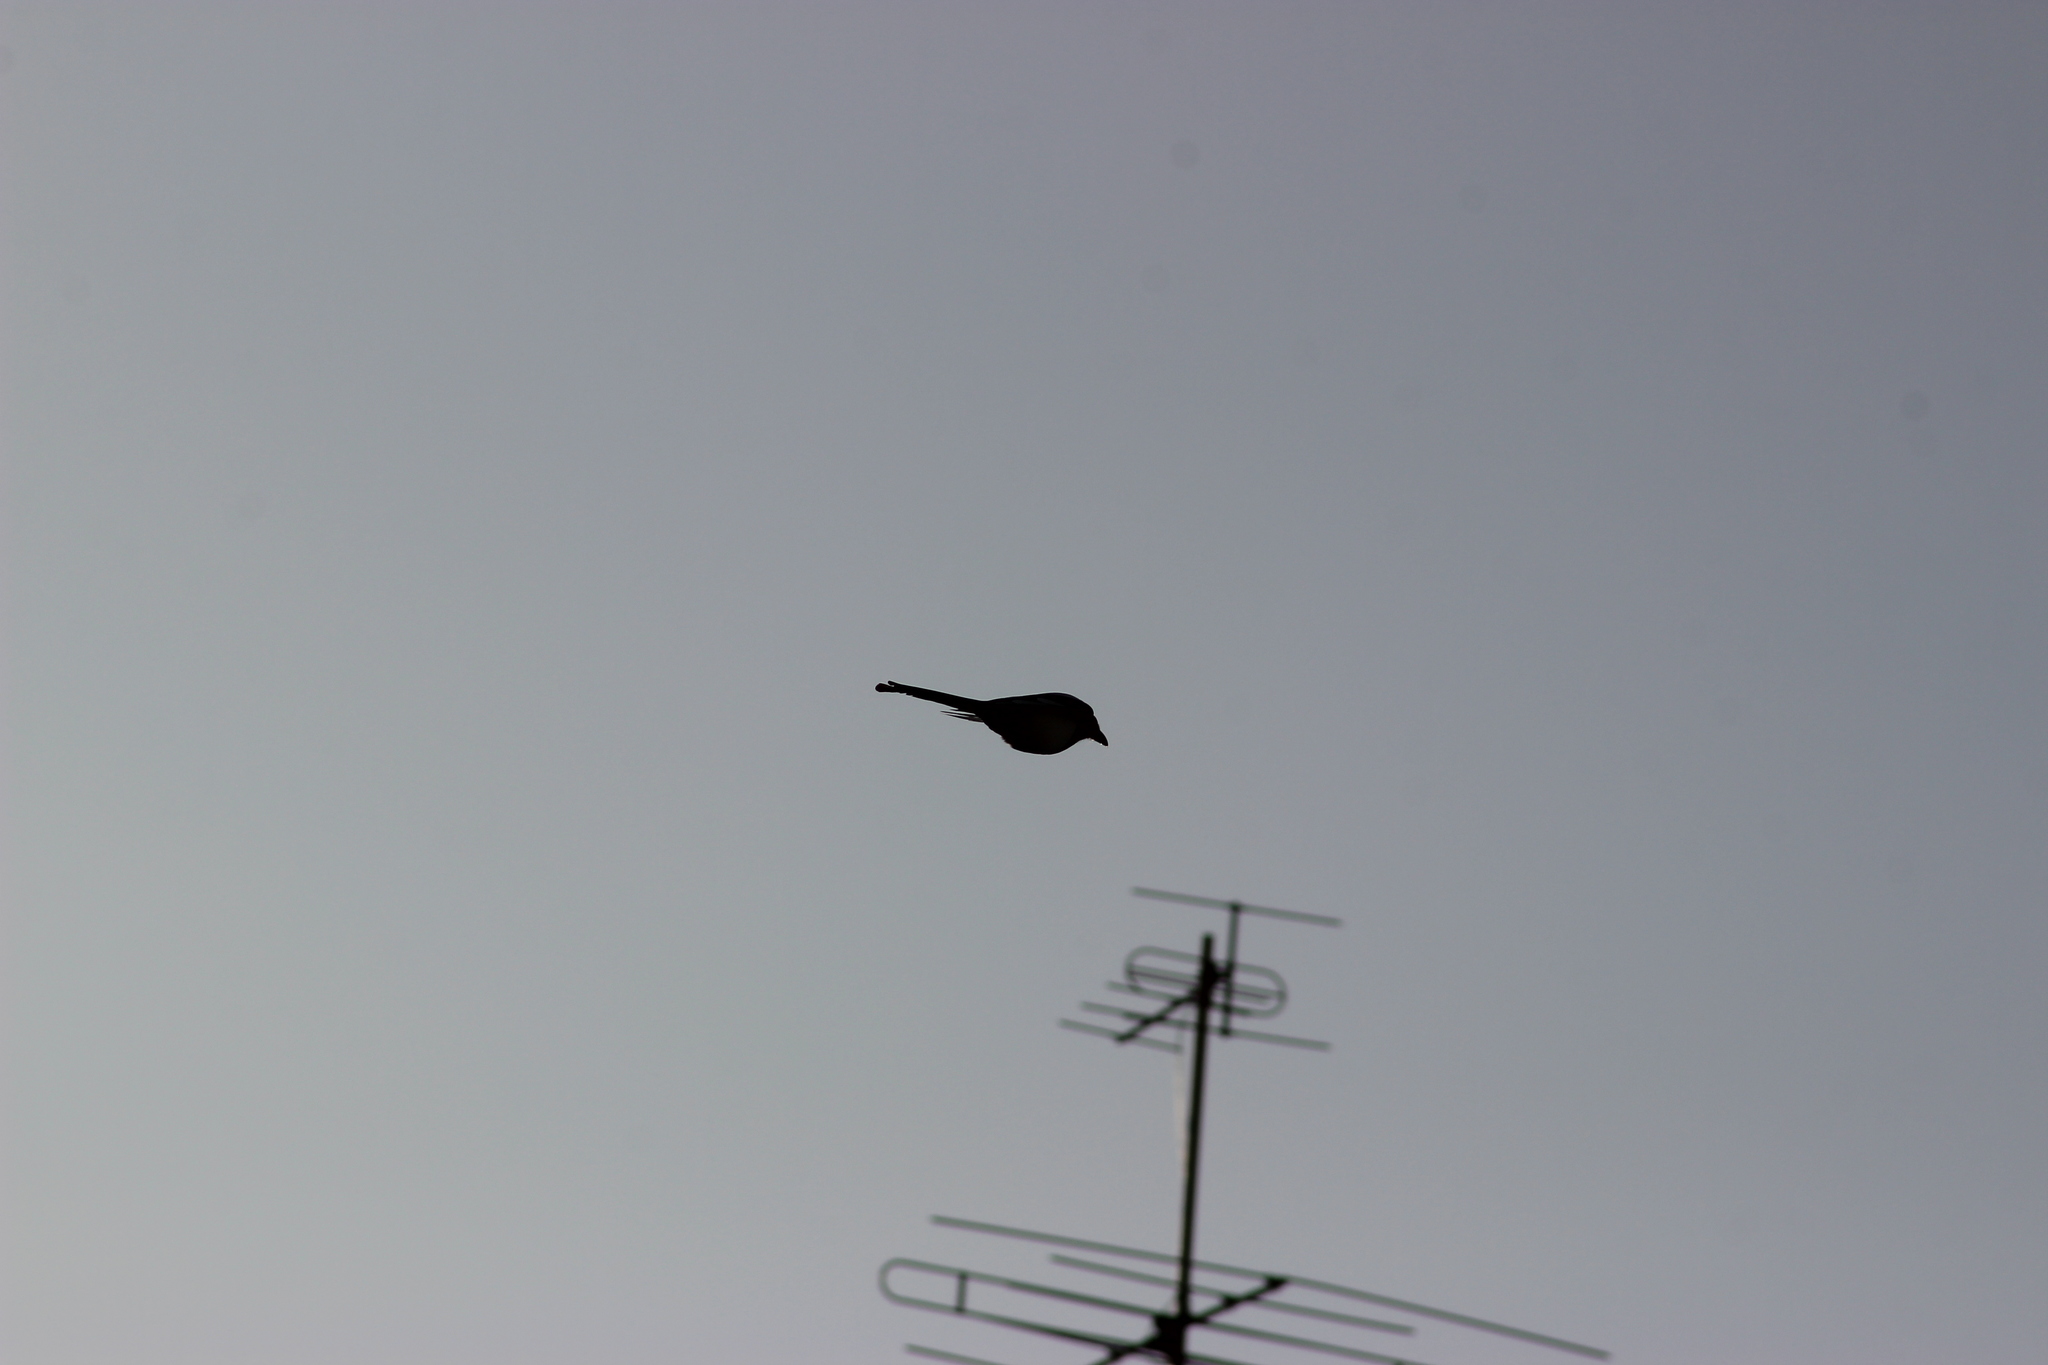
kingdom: Animalia
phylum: Chordata
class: Aves
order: Passeriformes
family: Corvidae
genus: Pica
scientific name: Pica pica
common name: Eurasian magpie
